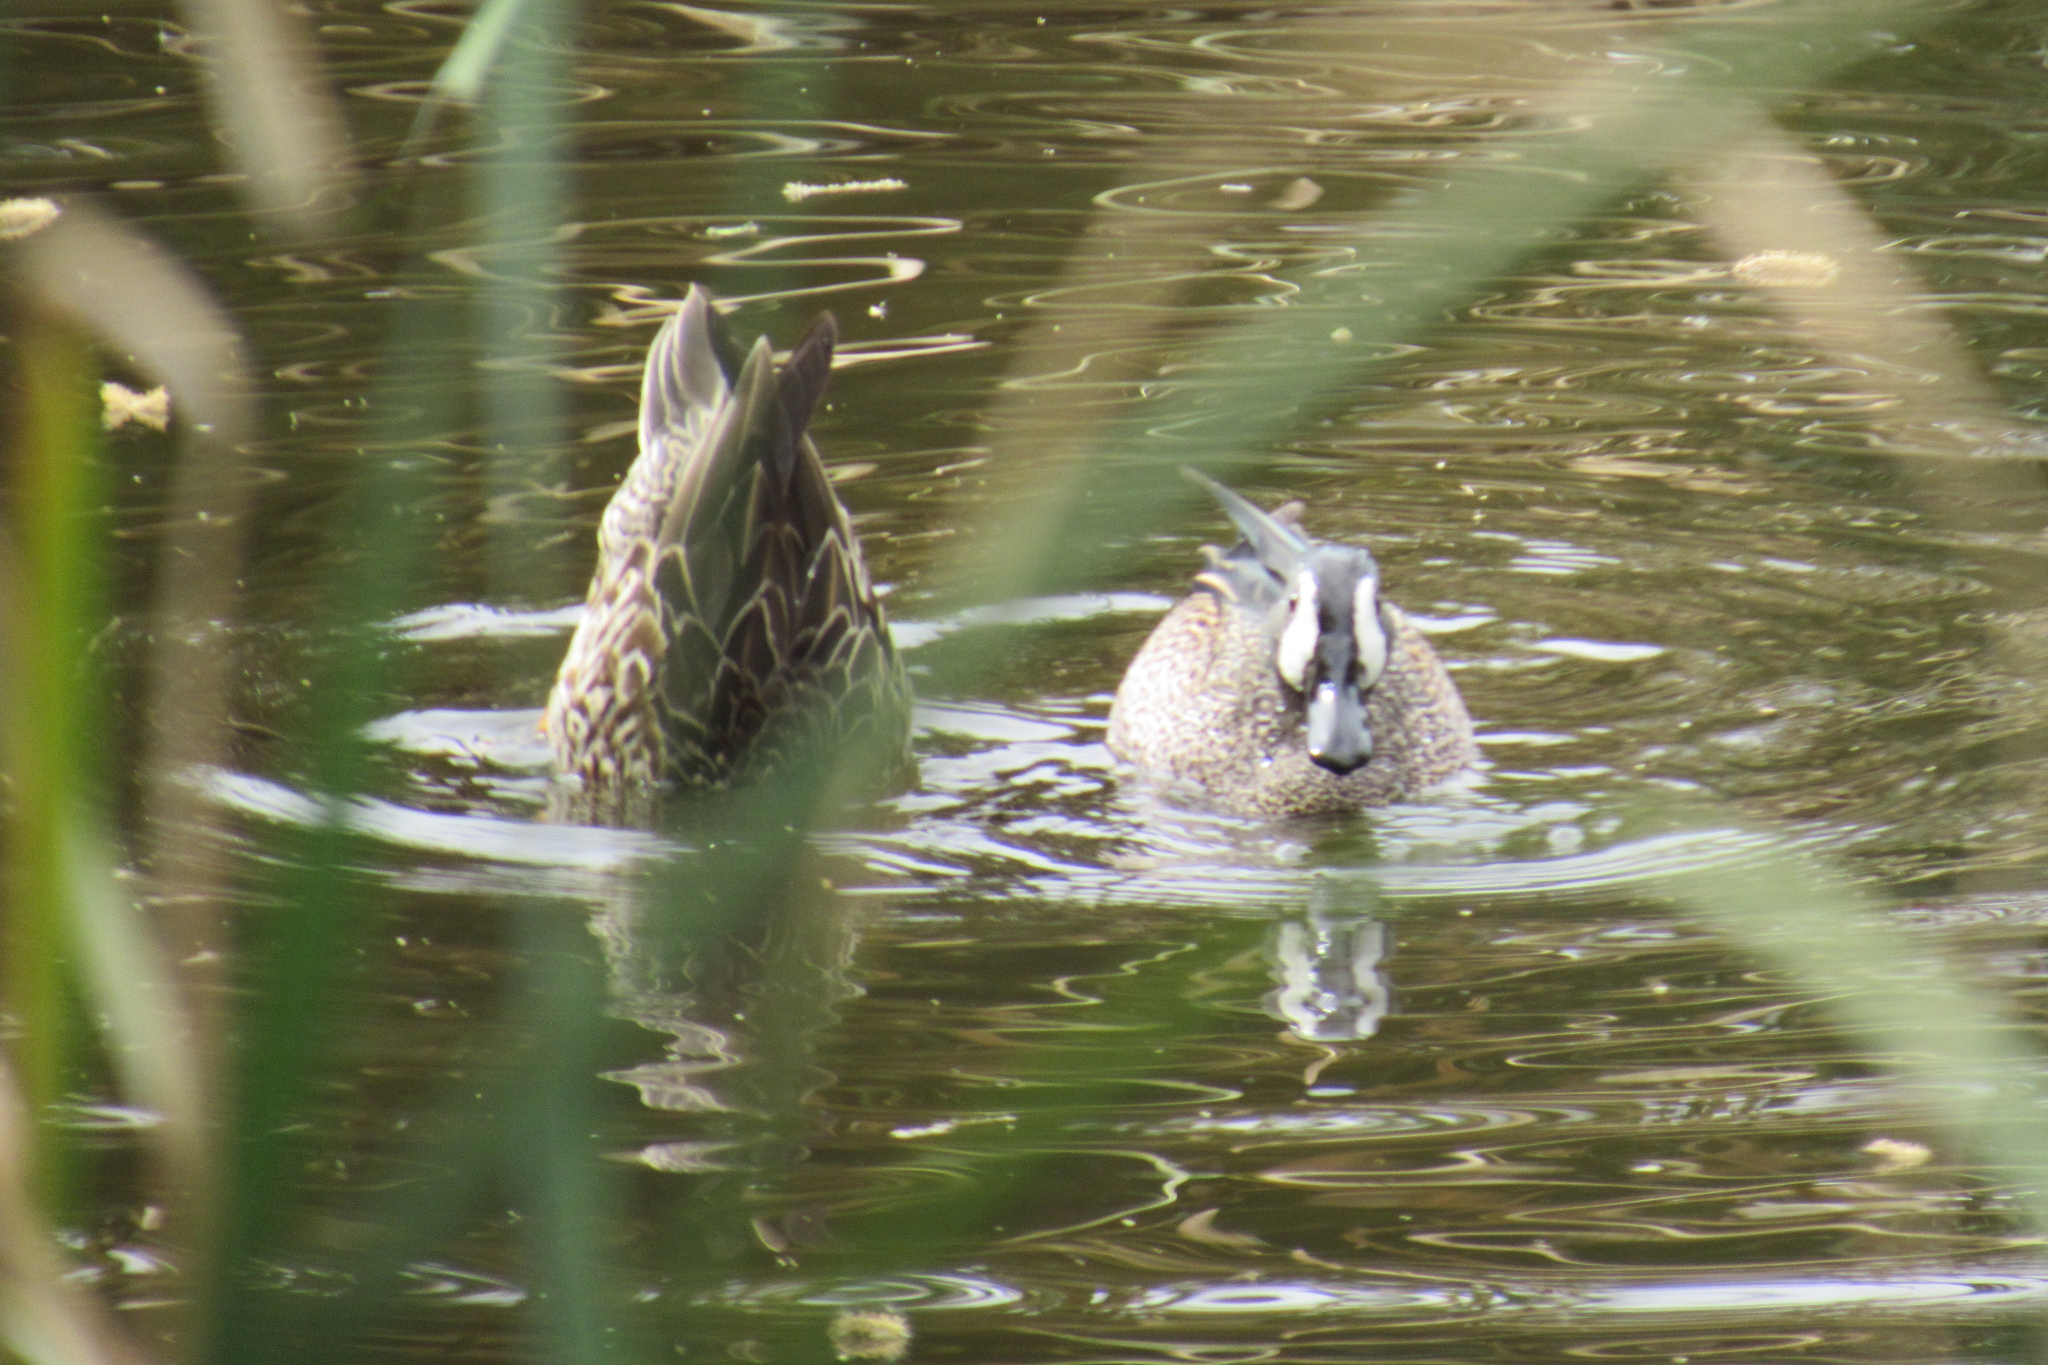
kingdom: Animalia
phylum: Chordata
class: Aves
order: Anseriformes
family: Anatidae
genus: Spatula
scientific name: Spatula discors
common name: Blue-winged teal
